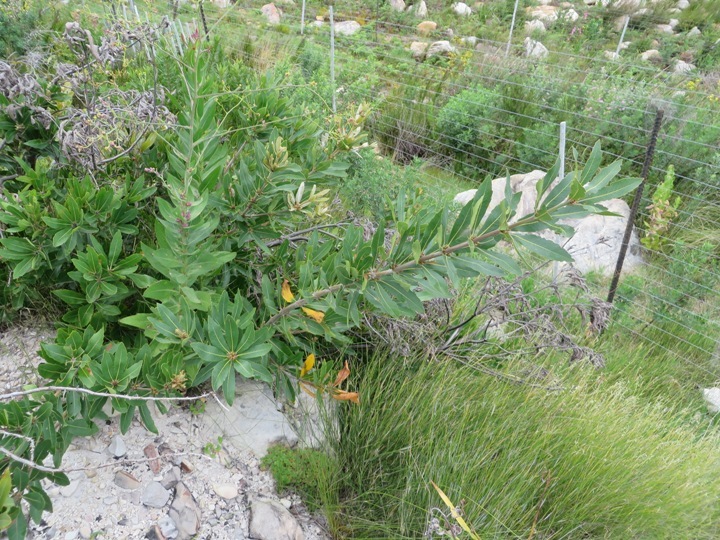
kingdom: Plantae
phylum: Tracheophyta
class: Magnoliopsida
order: Proteales
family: Proteaceae
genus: Brabejum
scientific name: Brabejum stellatifolium
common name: Wild almond
